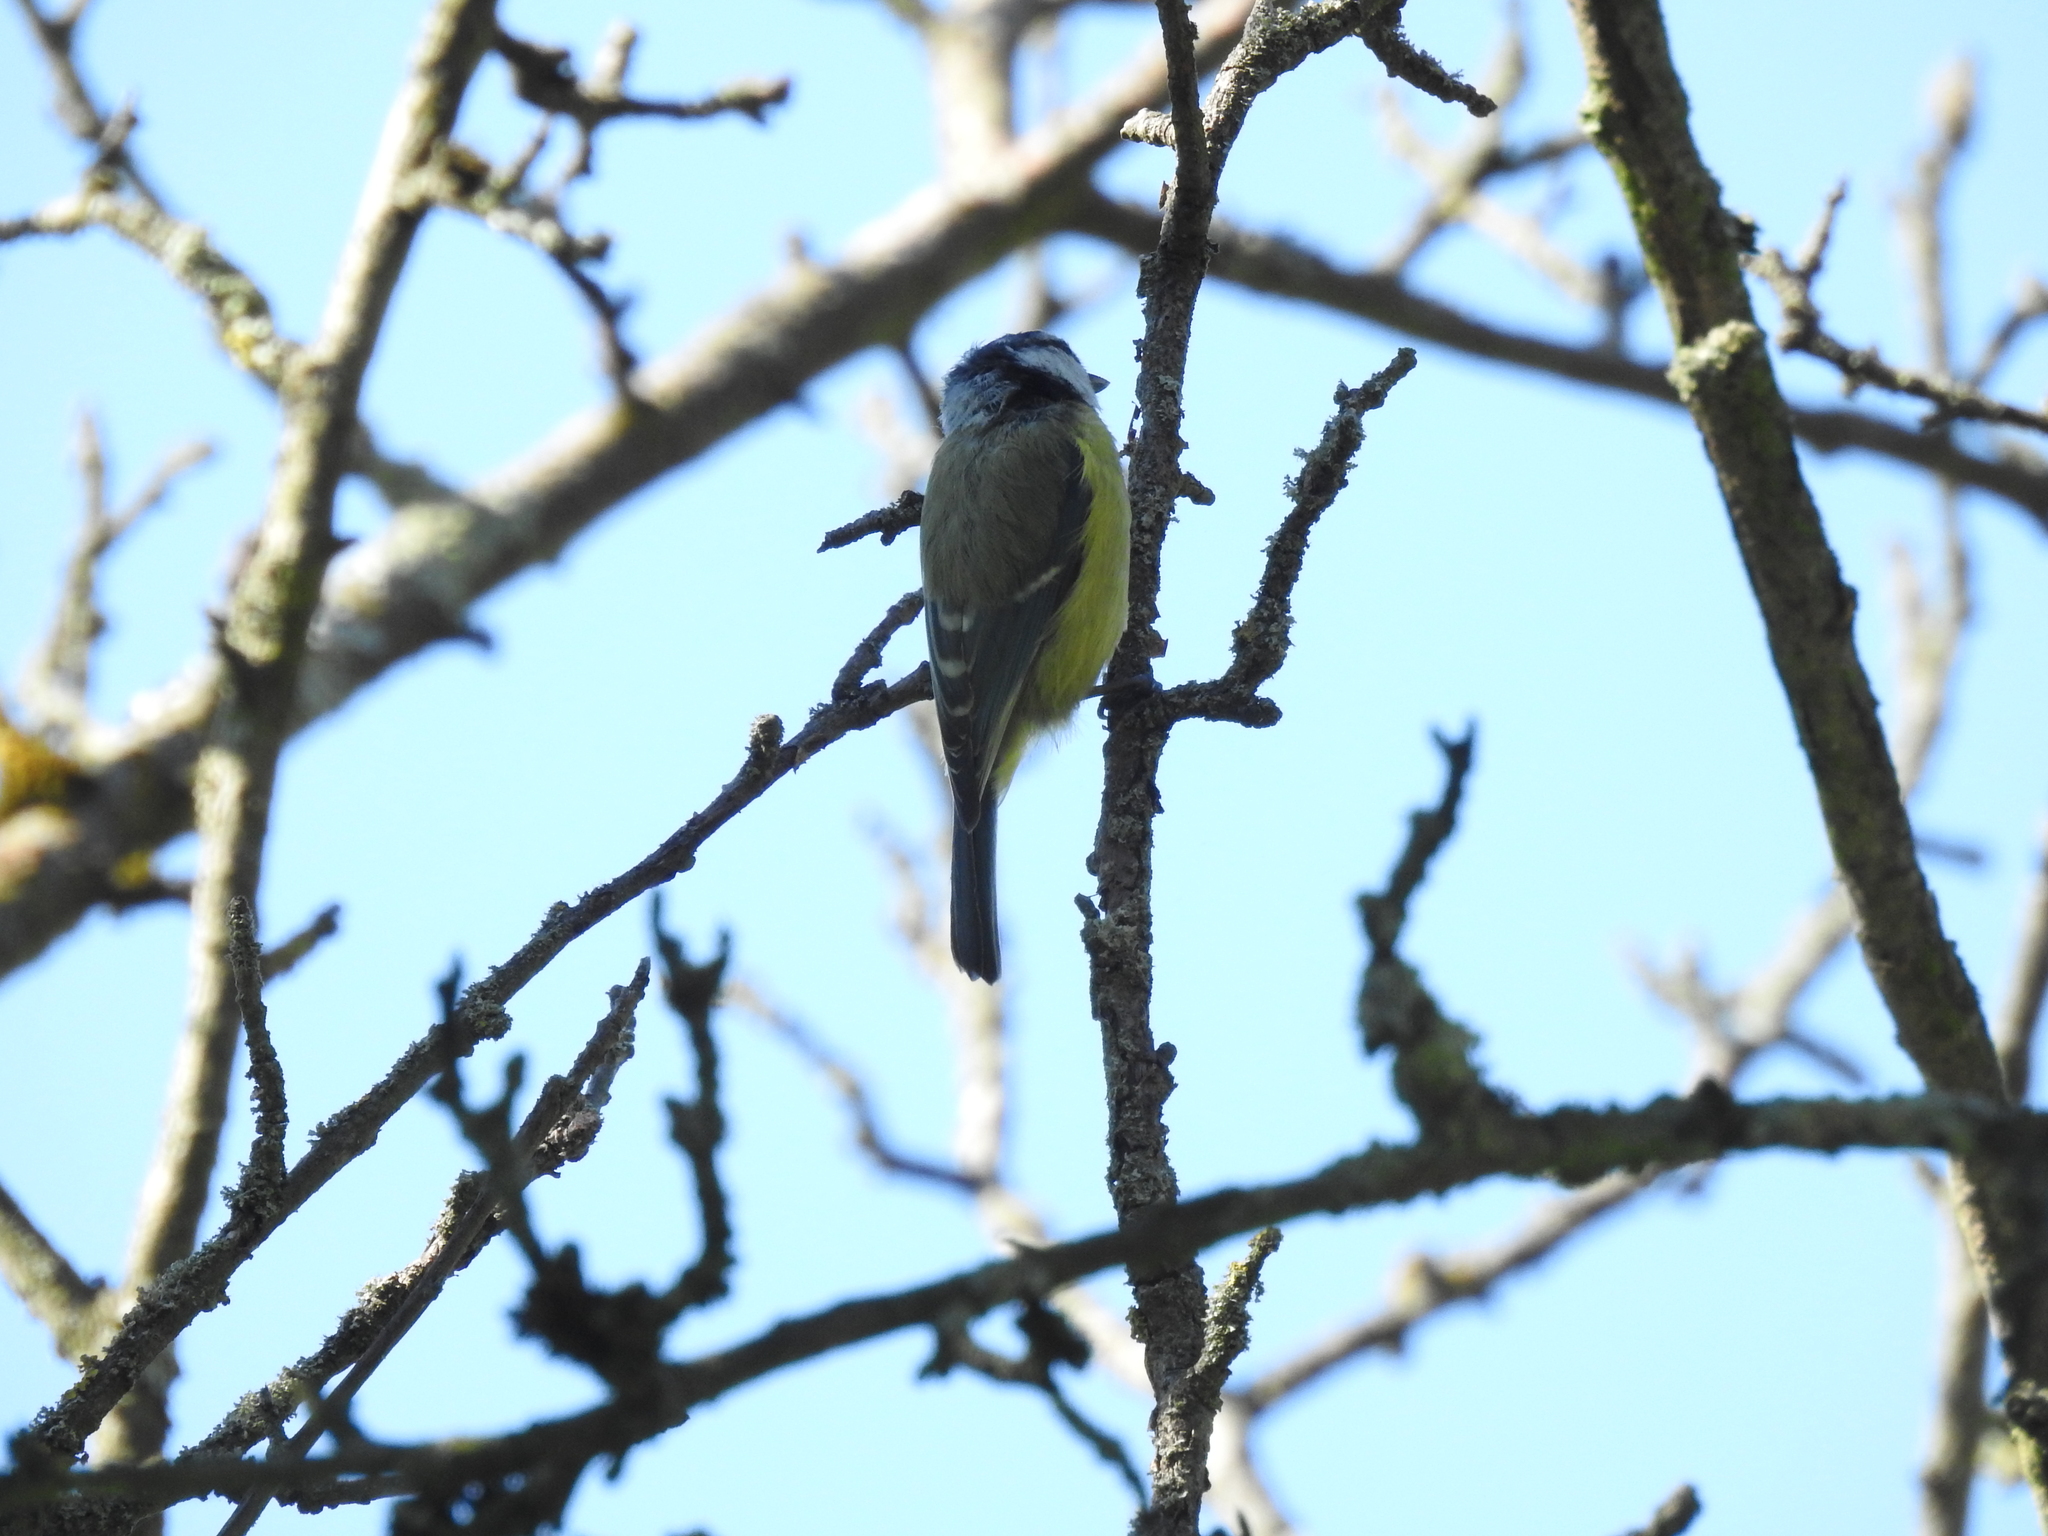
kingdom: Animalia
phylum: Chordata
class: Aves
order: Passeriformes
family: Paridae
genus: Cyanistes
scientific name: Cyanistes caeruleus
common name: Eurasian blue tit
